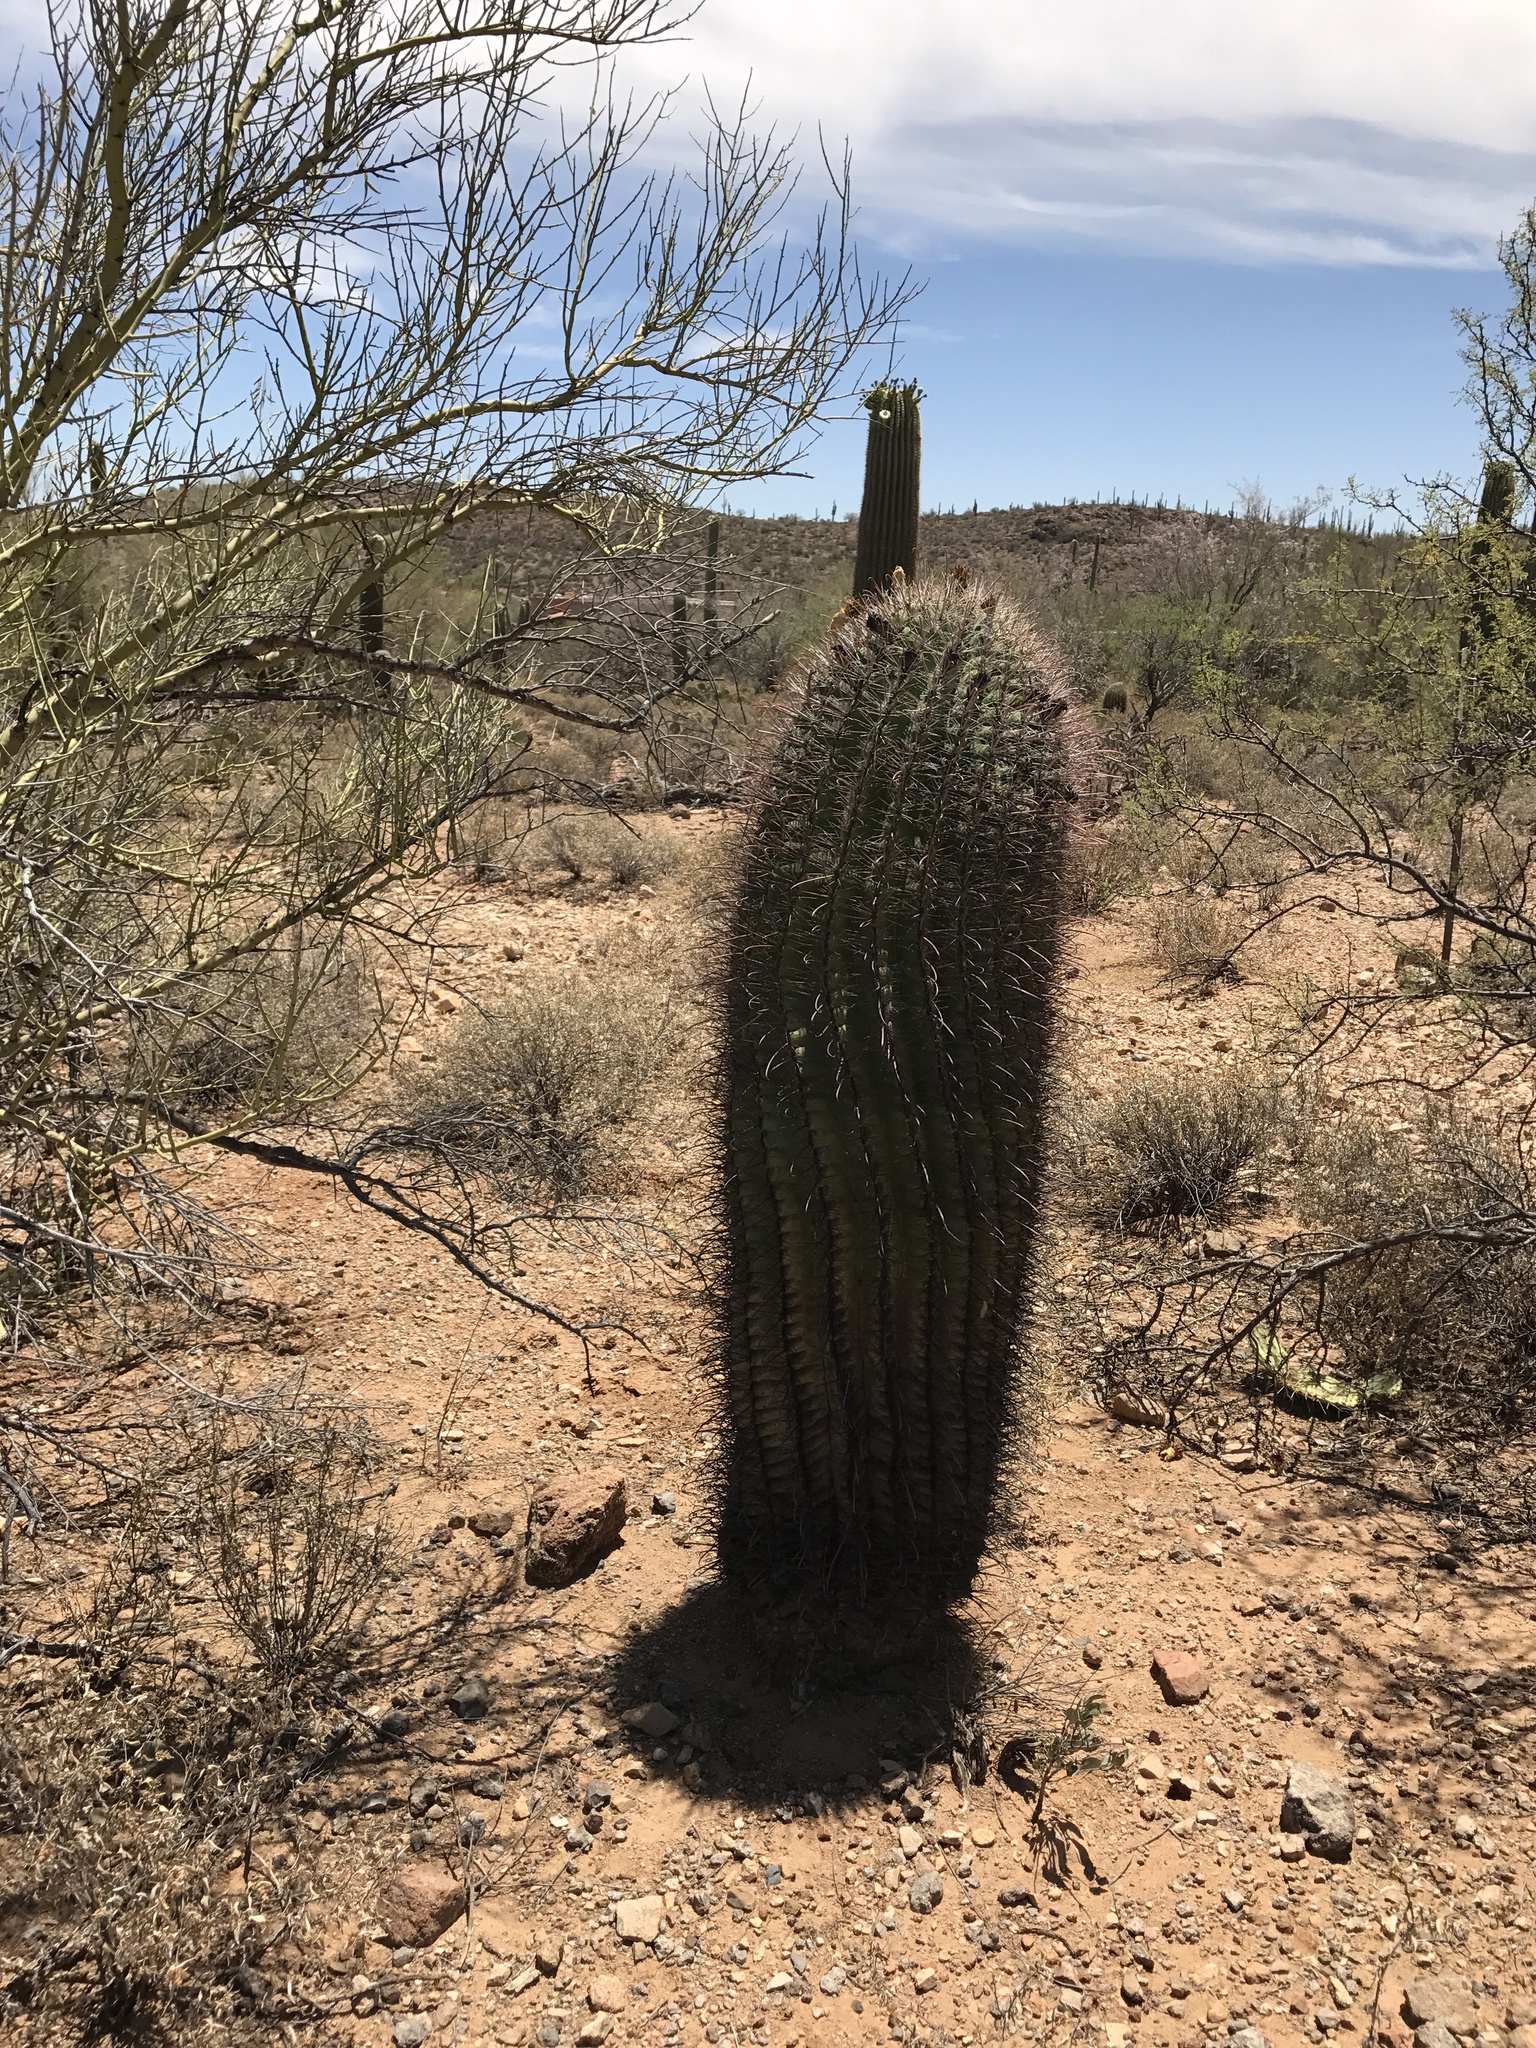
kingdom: Plantae
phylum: Tracheophyta
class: Magnoliopsida
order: Caryophyllales
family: Cactaceae
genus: Ferocactus
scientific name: Ferocactus wislizeni
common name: Candy barrel cactus
